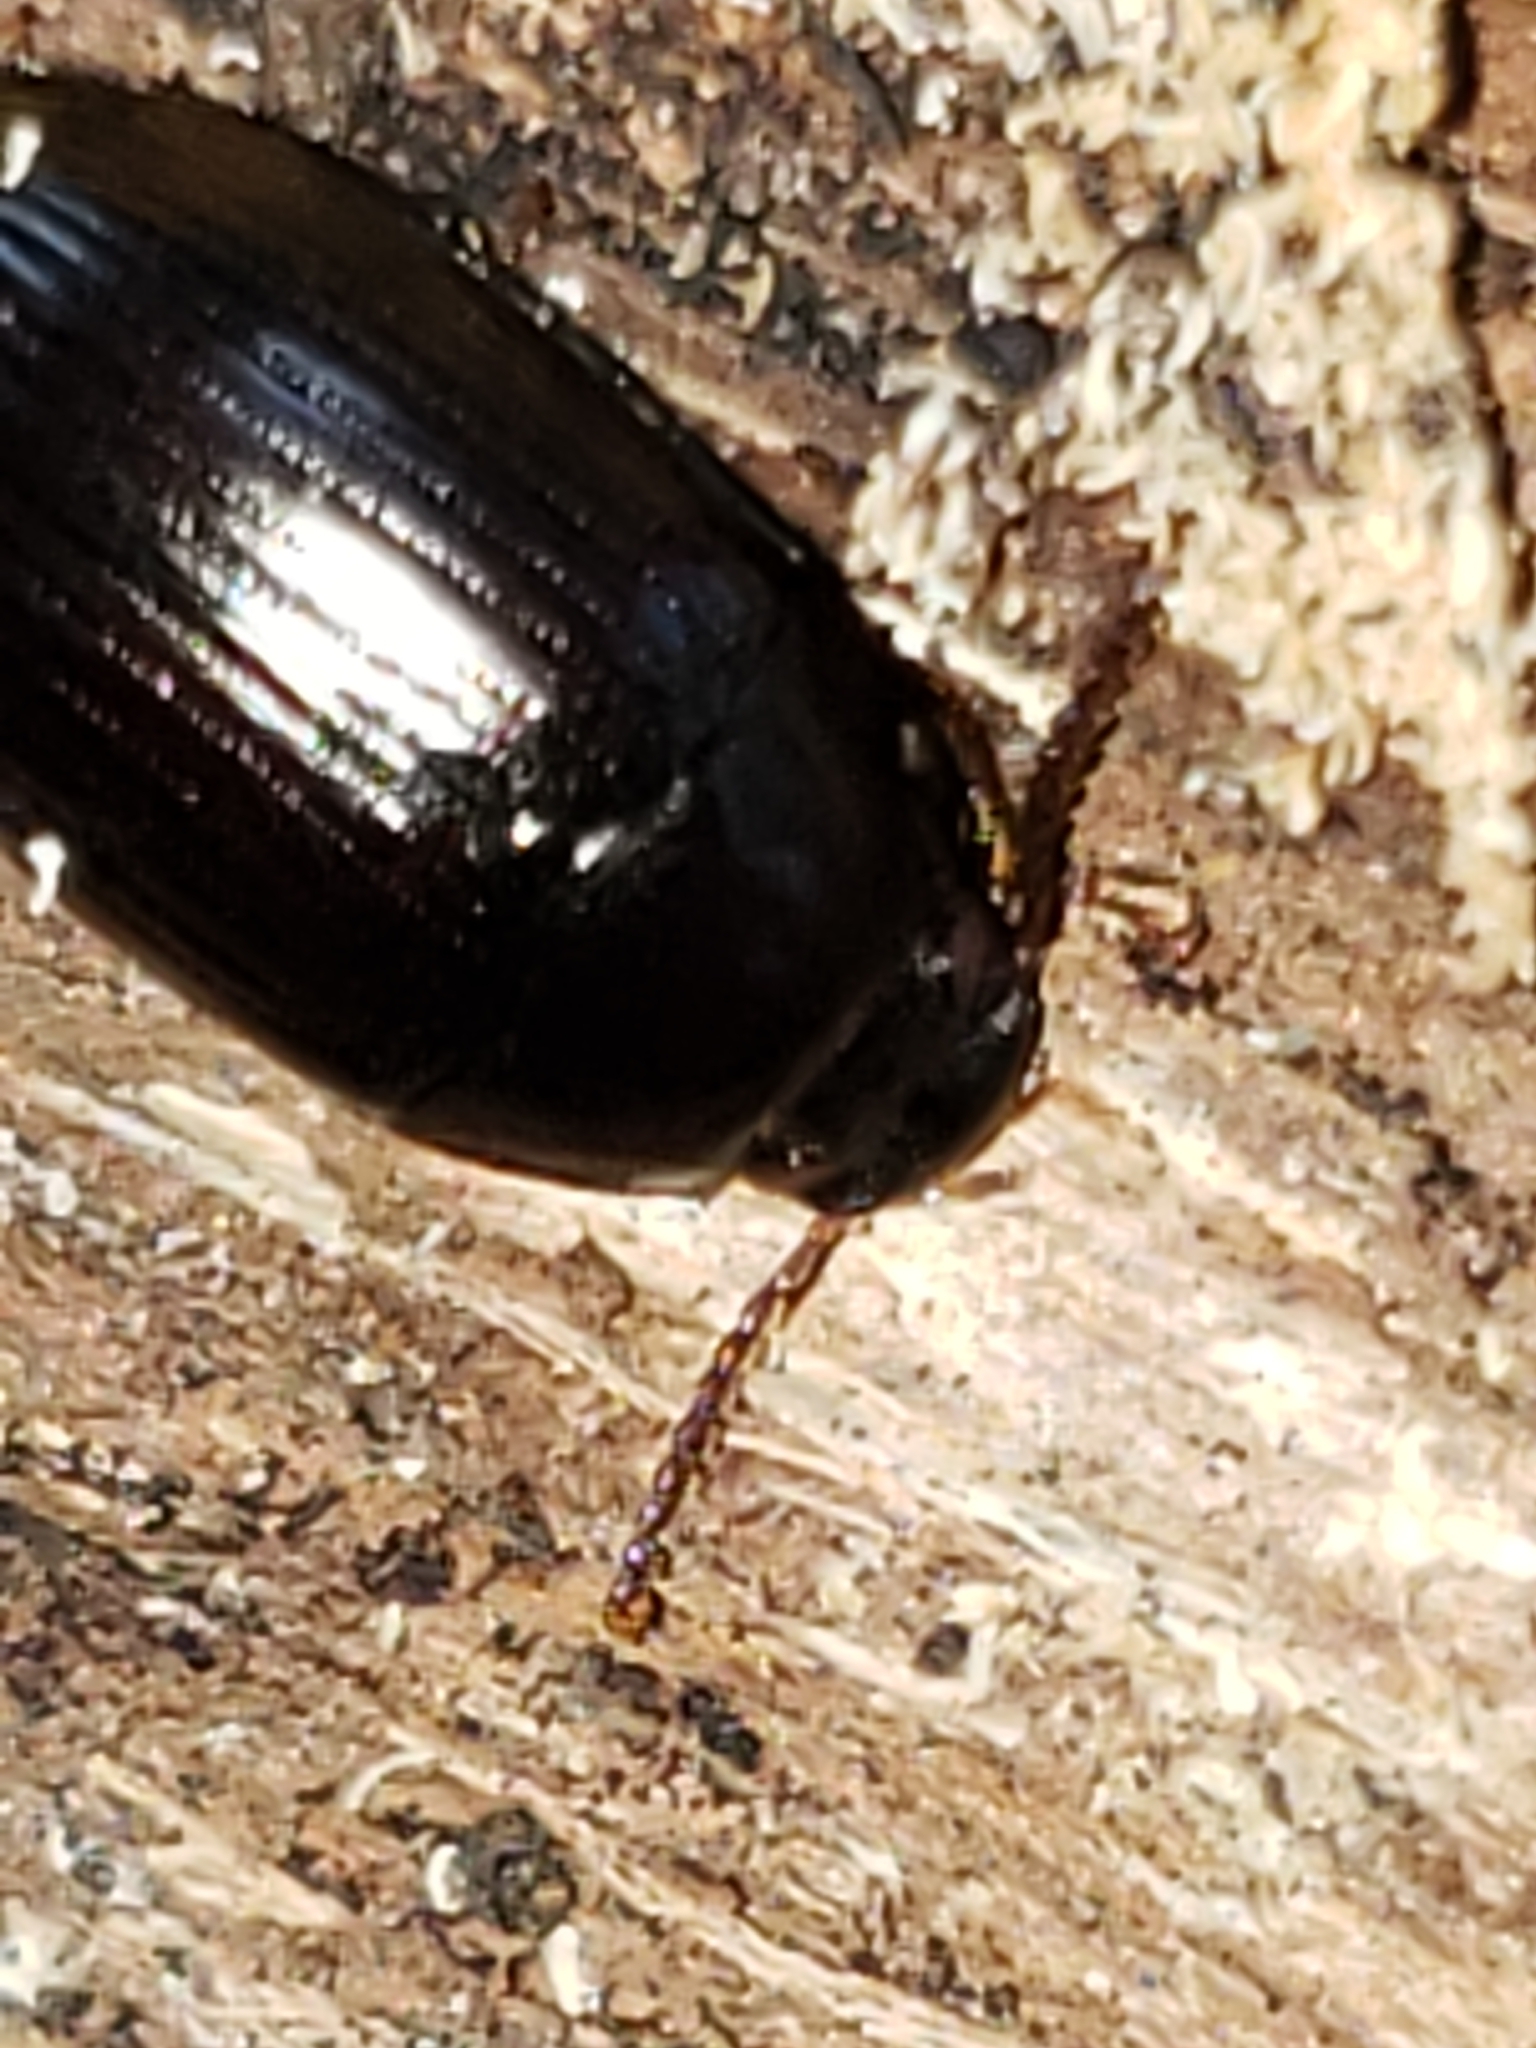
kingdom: Animalia
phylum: Arthropoda
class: Insecta
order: Coleoptera
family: Tenebrionidae
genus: Platydema
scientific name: Platydema americana
